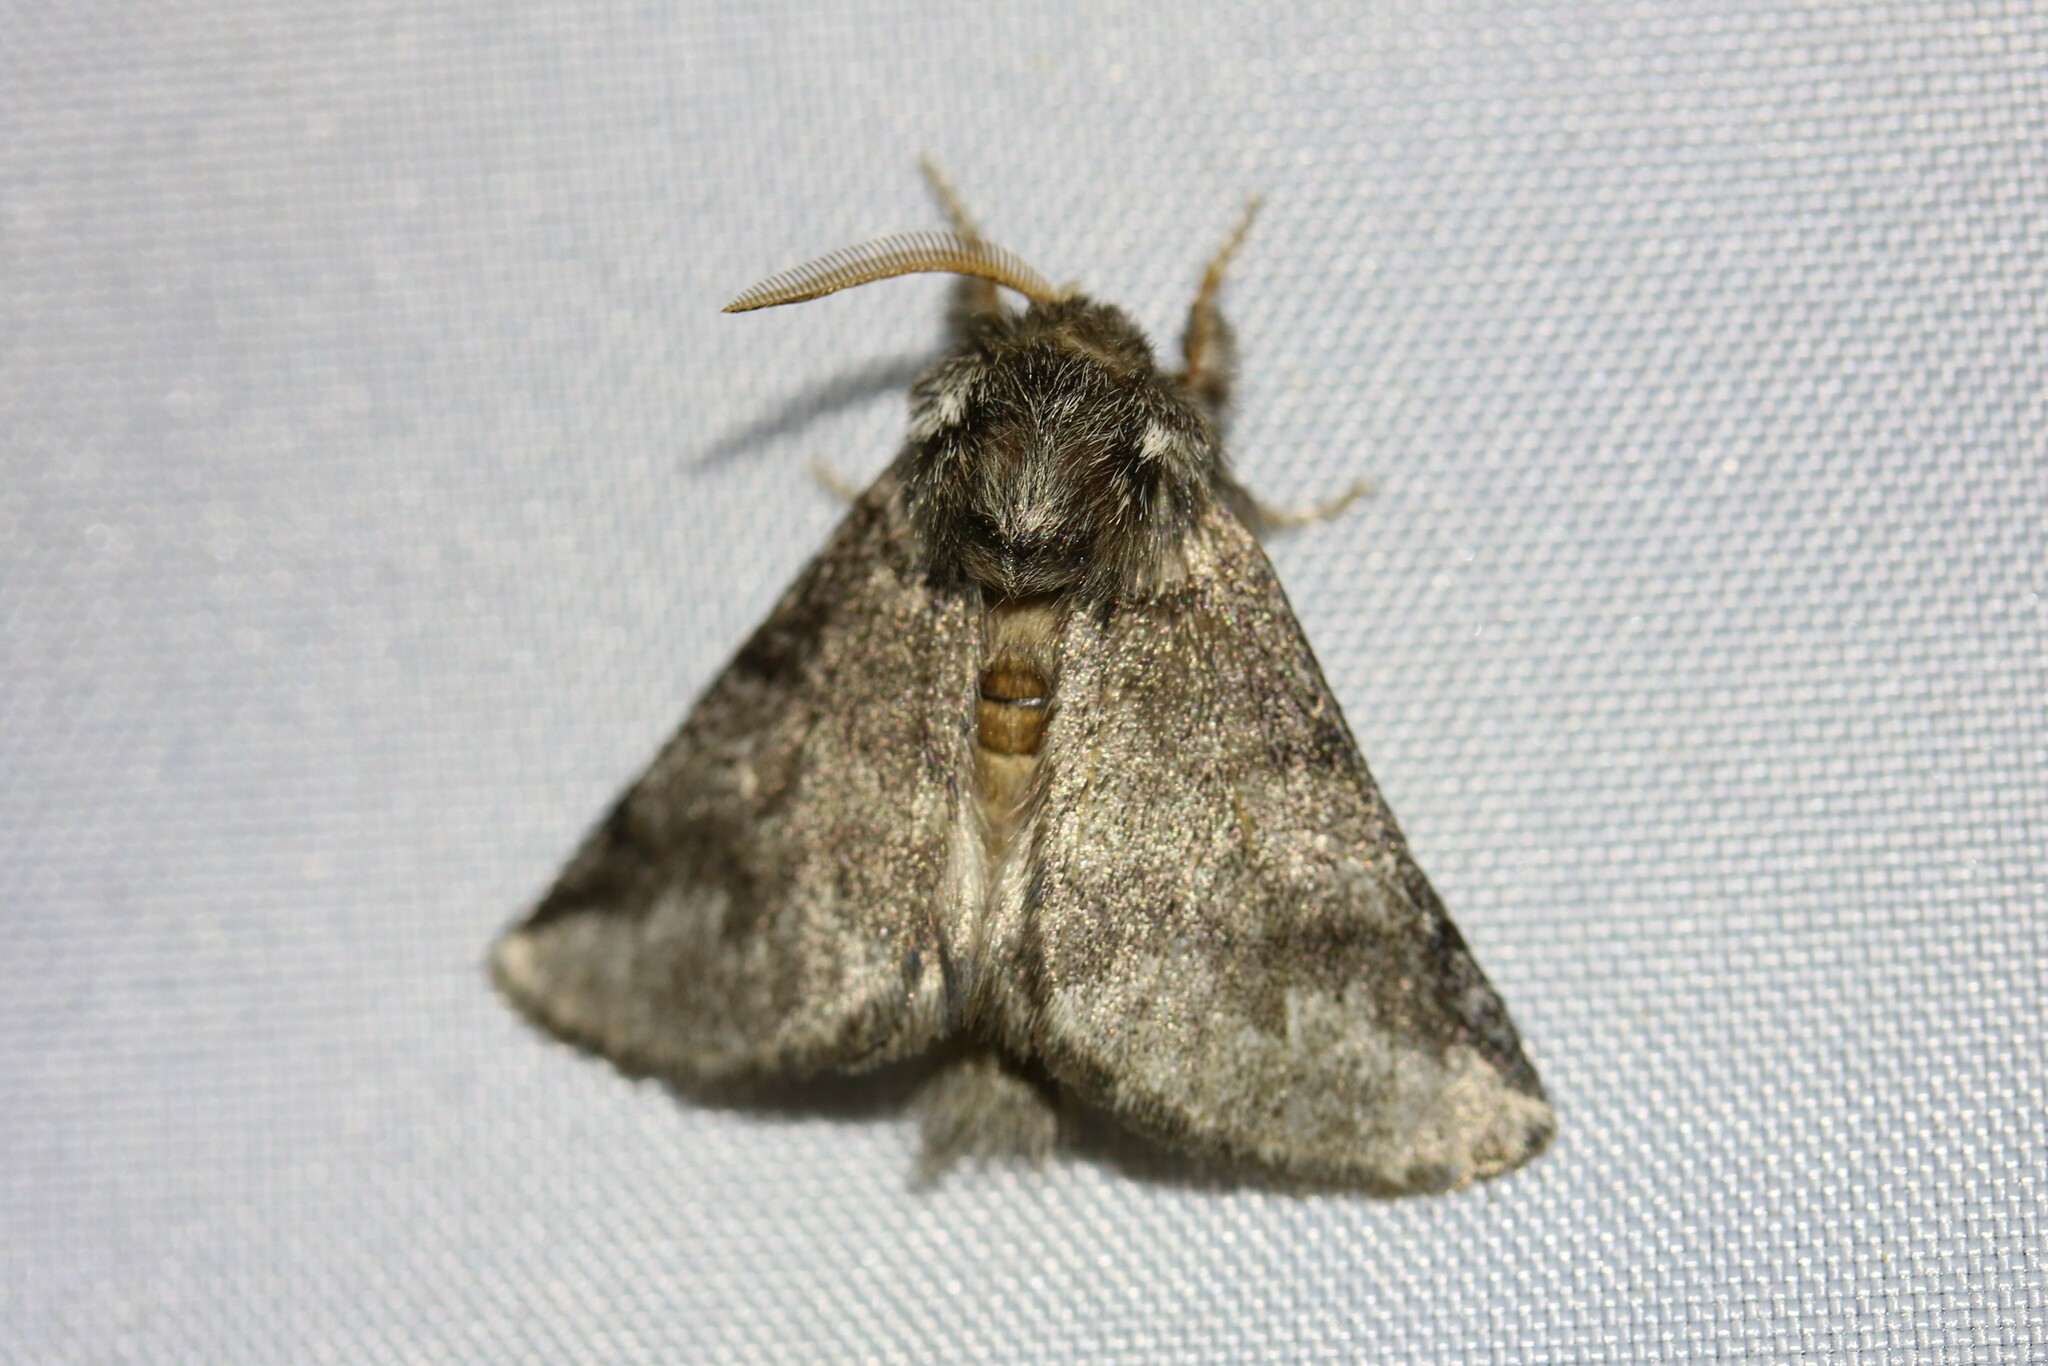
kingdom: Animalia
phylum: Arthropoda
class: Insecta
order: Lepidoptera
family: Notodontidae
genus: Thaumetopoea
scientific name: Thaumetopoea processionea
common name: Oak processionea
